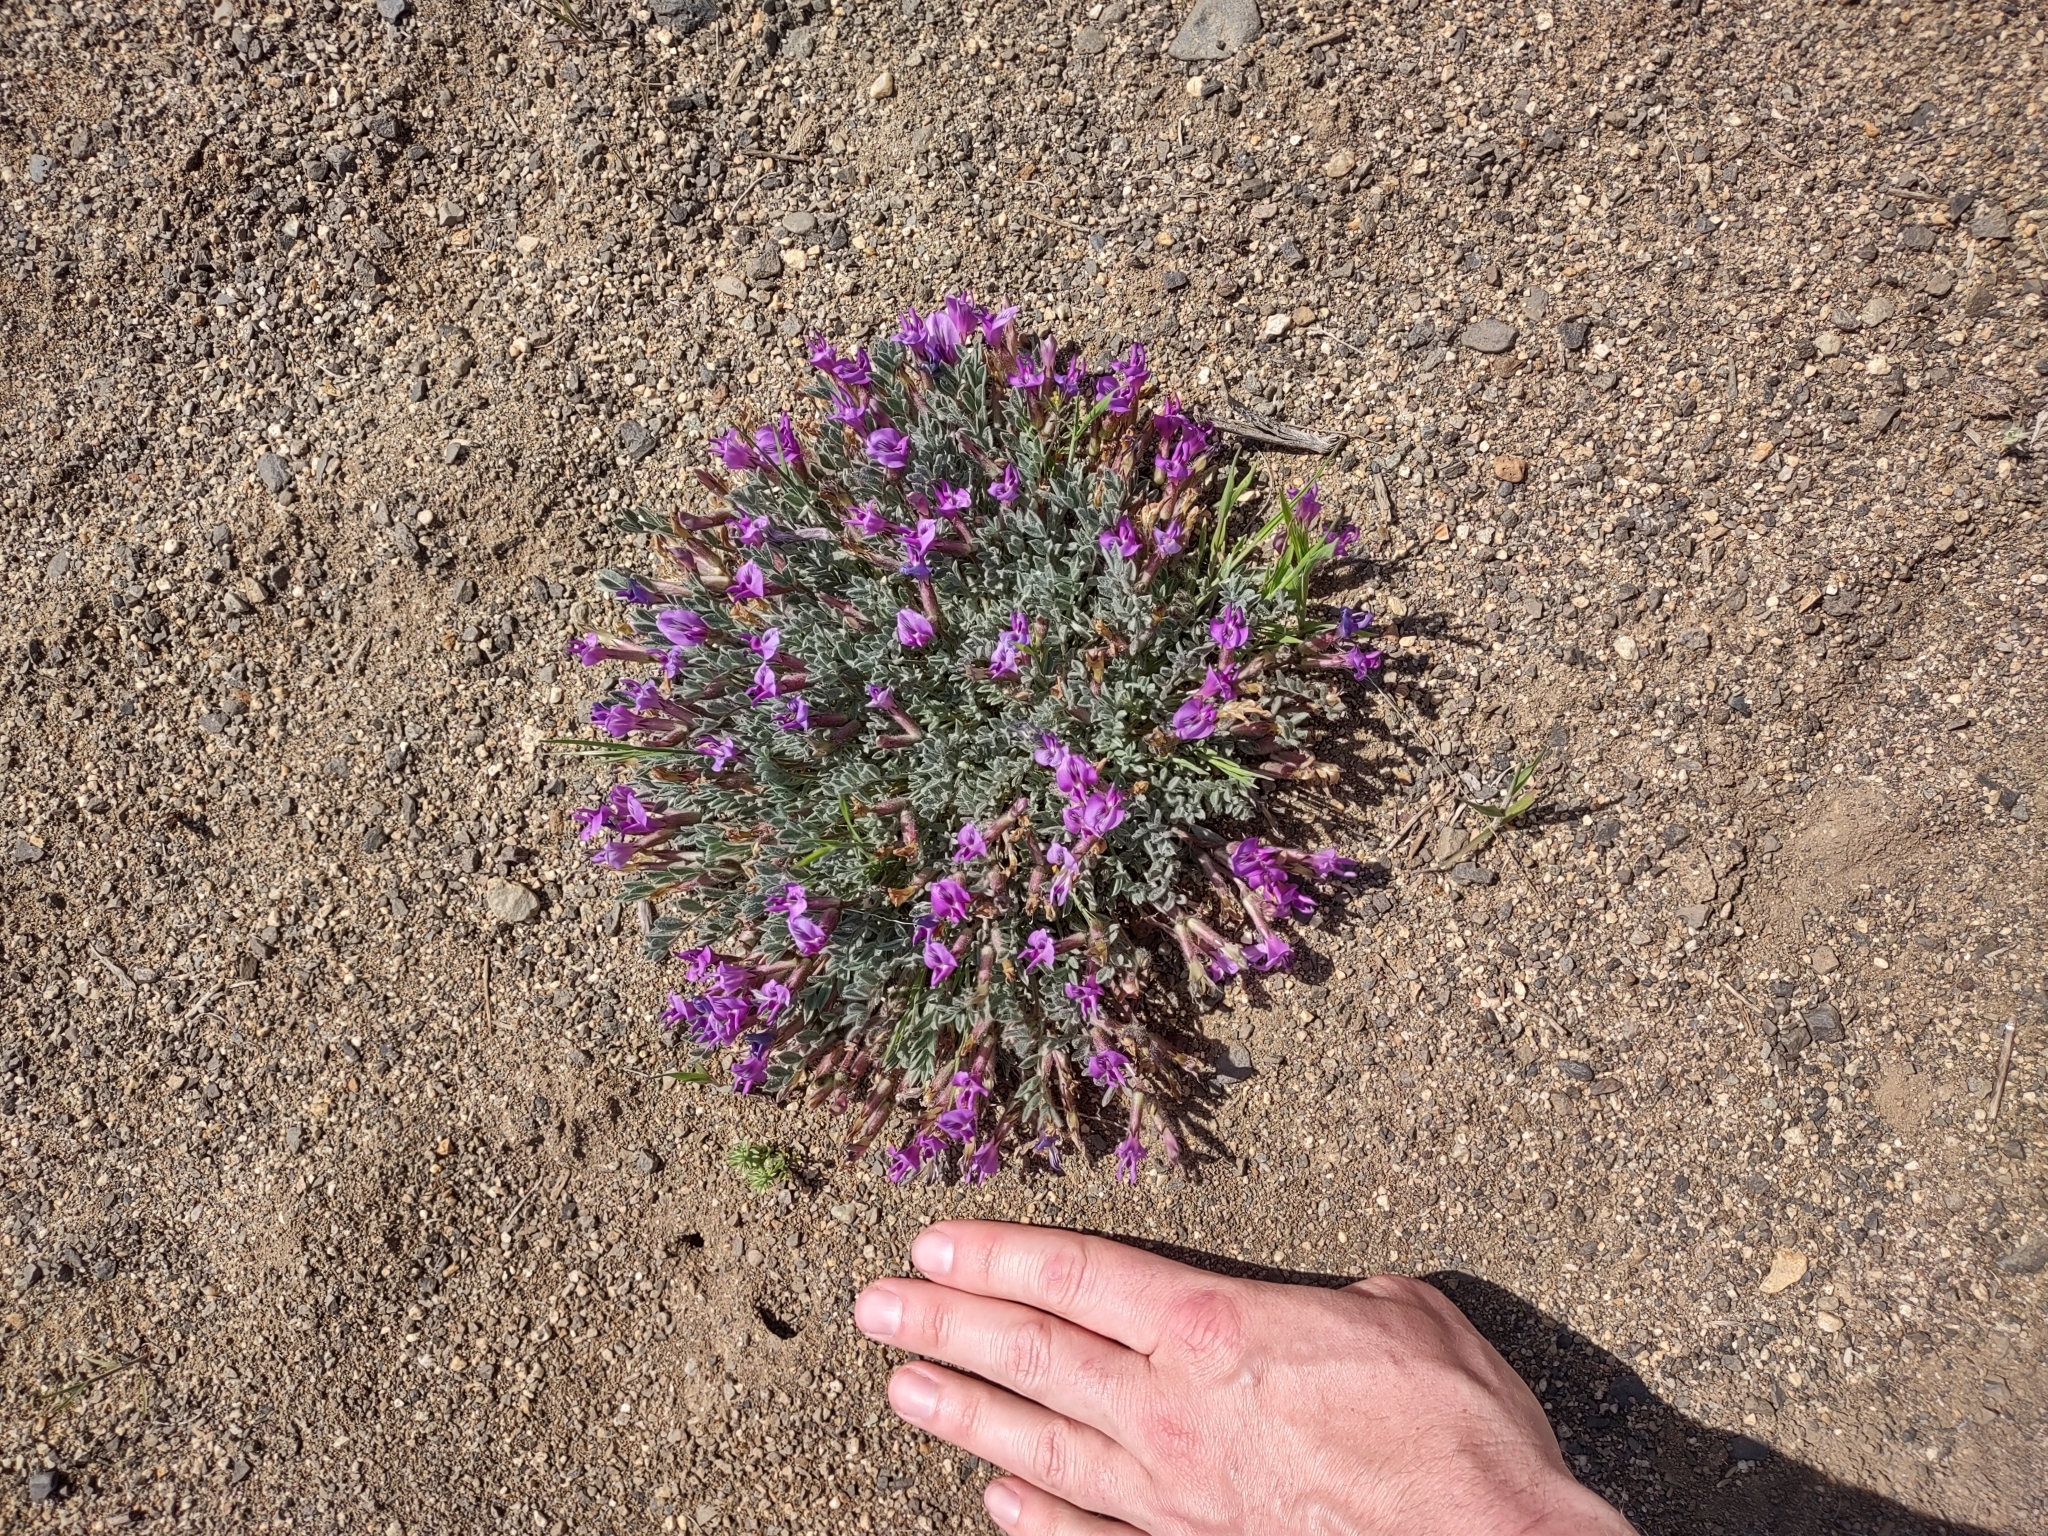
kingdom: Plantae
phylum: Tracheophyta
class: Magnoliopsida
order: Fabales
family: Fabaceae
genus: Astragalus
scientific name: Astragalus purshii
